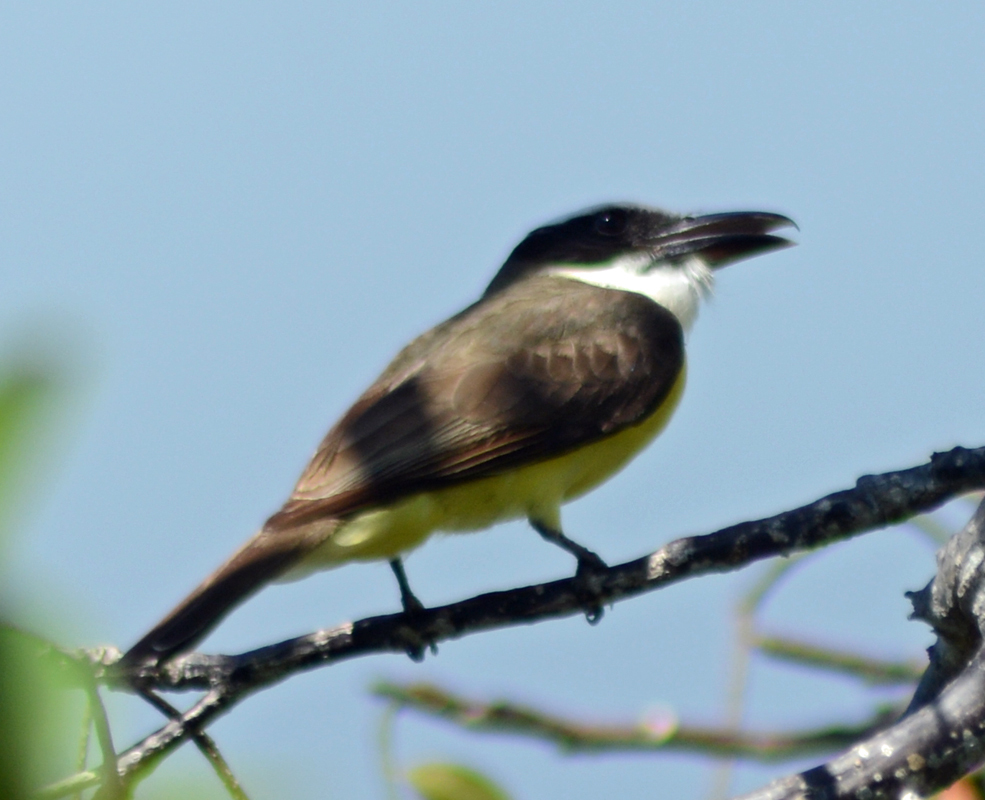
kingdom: Animalia
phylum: Chordata
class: Aves
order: Passeriformes
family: Tyrannidae
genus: Megarynchus
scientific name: Megarynchus pitangua
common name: Boat-billed flycatcher
